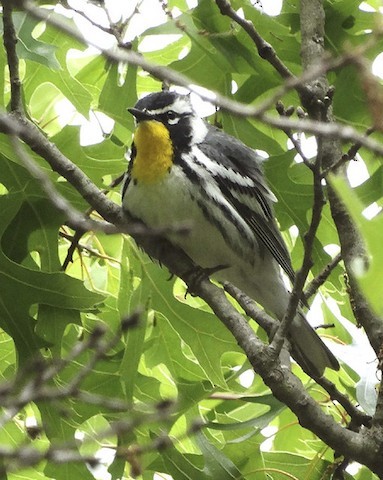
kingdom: Animalia
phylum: Chordata
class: Aves
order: Passeriformes
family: Parulidae
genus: Setophaga
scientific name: Setophaga dominica
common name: Yellow-throated warbler
